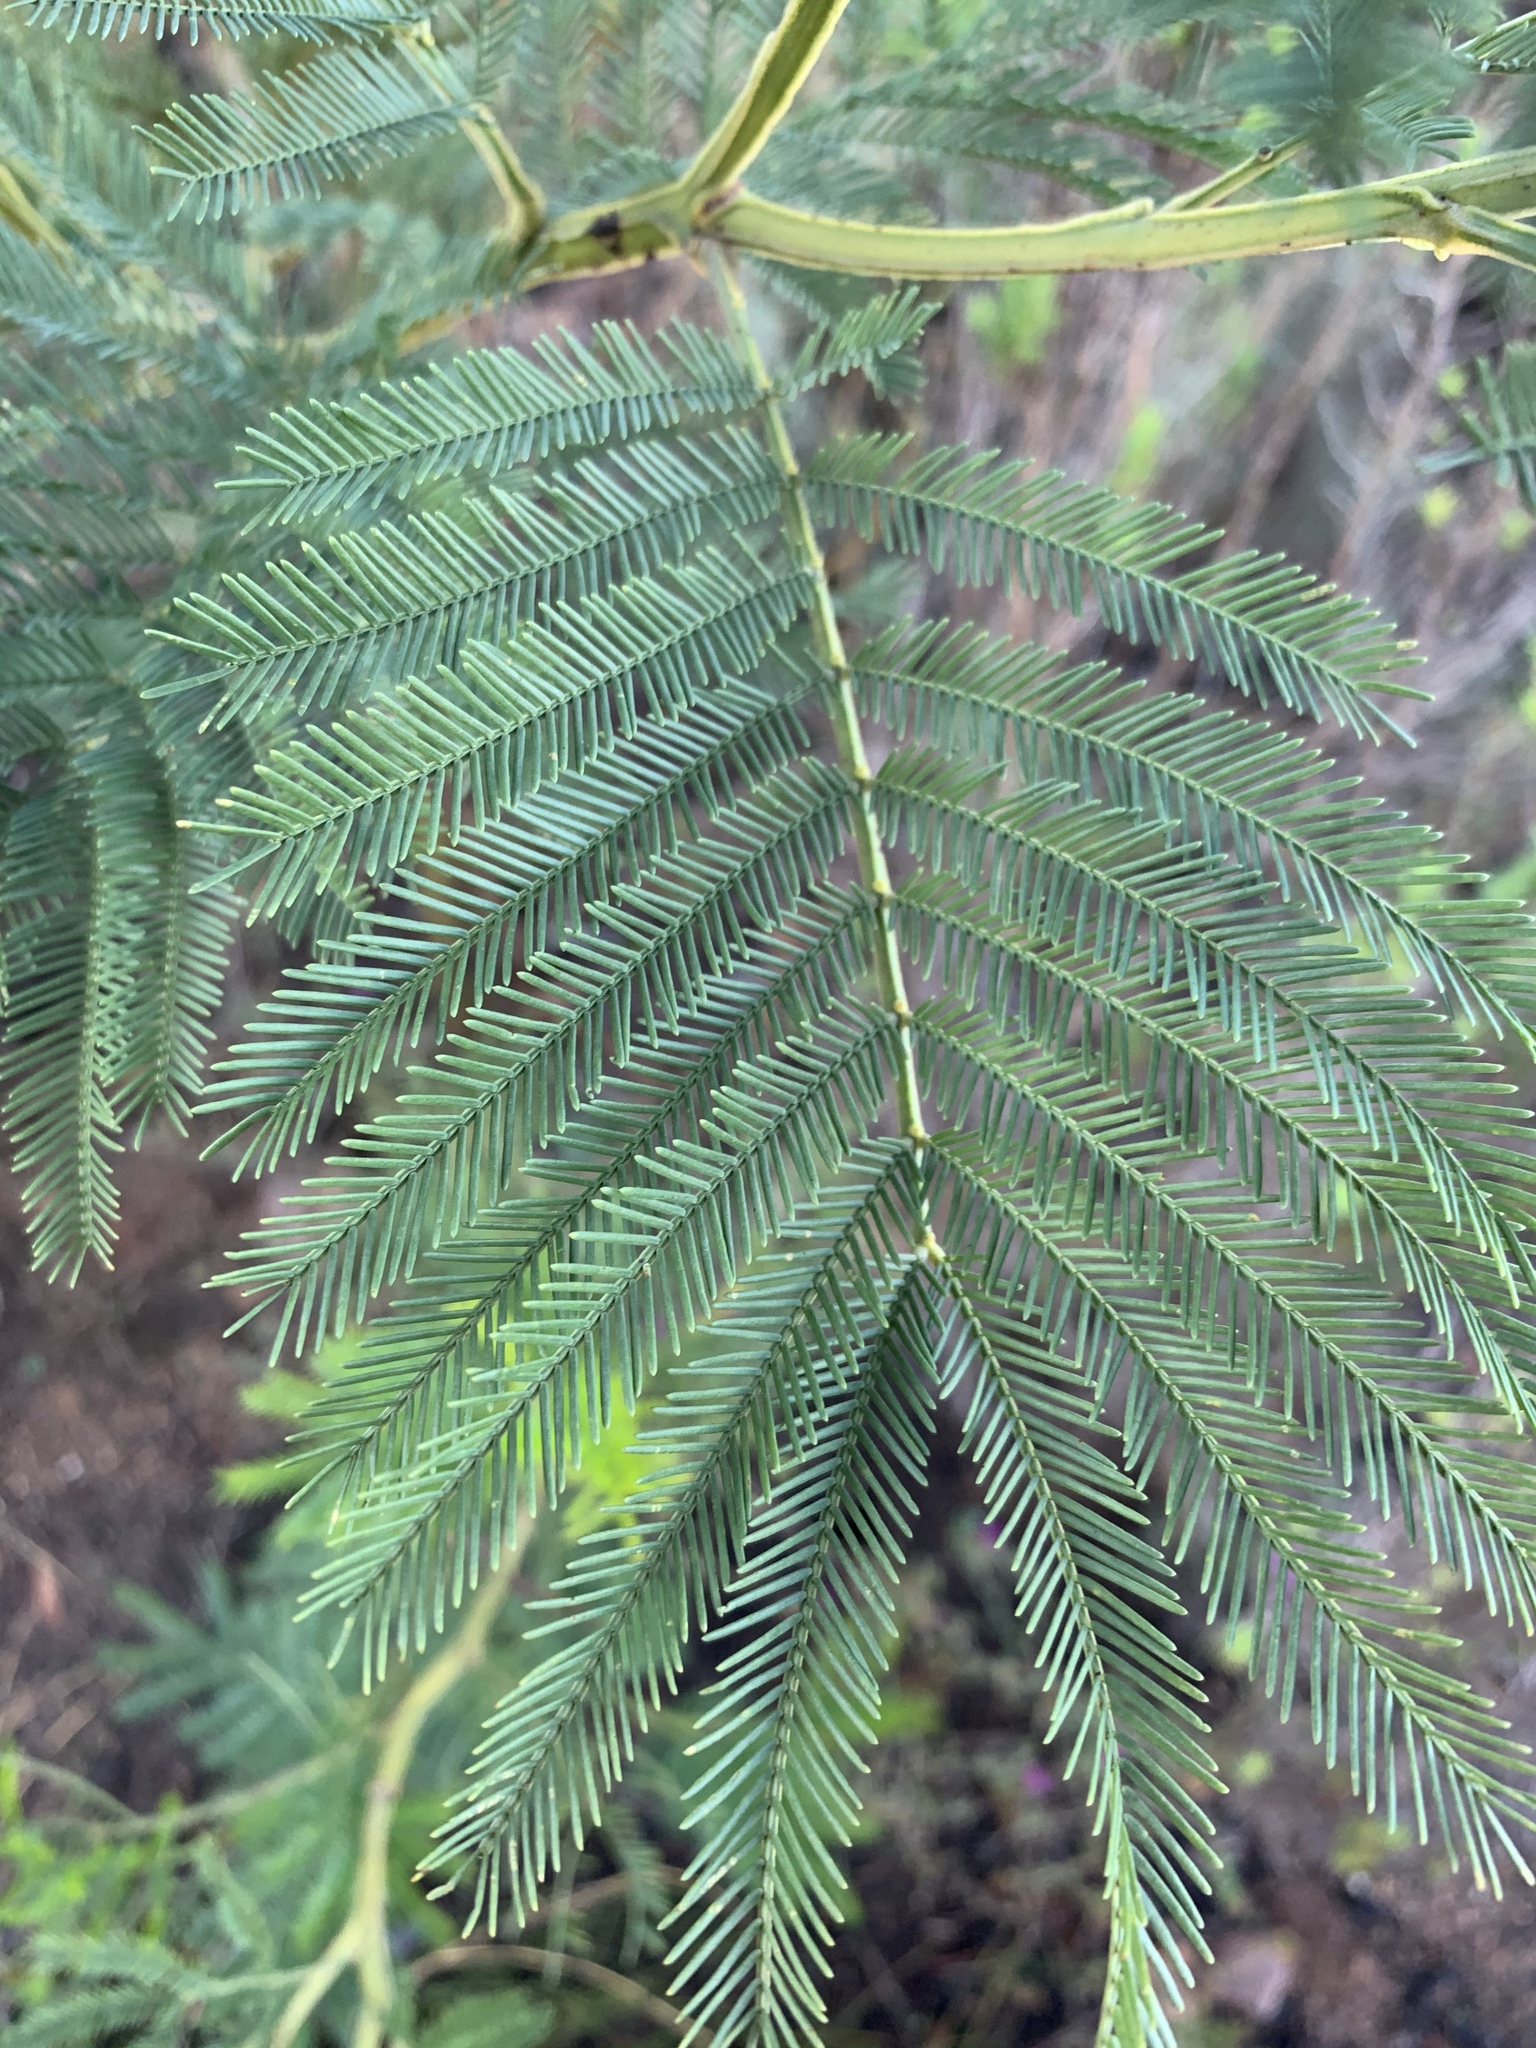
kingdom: Plantae
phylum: Tracheophyta
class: Magnoliopsida
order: Fabales
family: Fabaceae
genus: Acacia
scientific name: Acacia decurrens
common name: Green wattle
